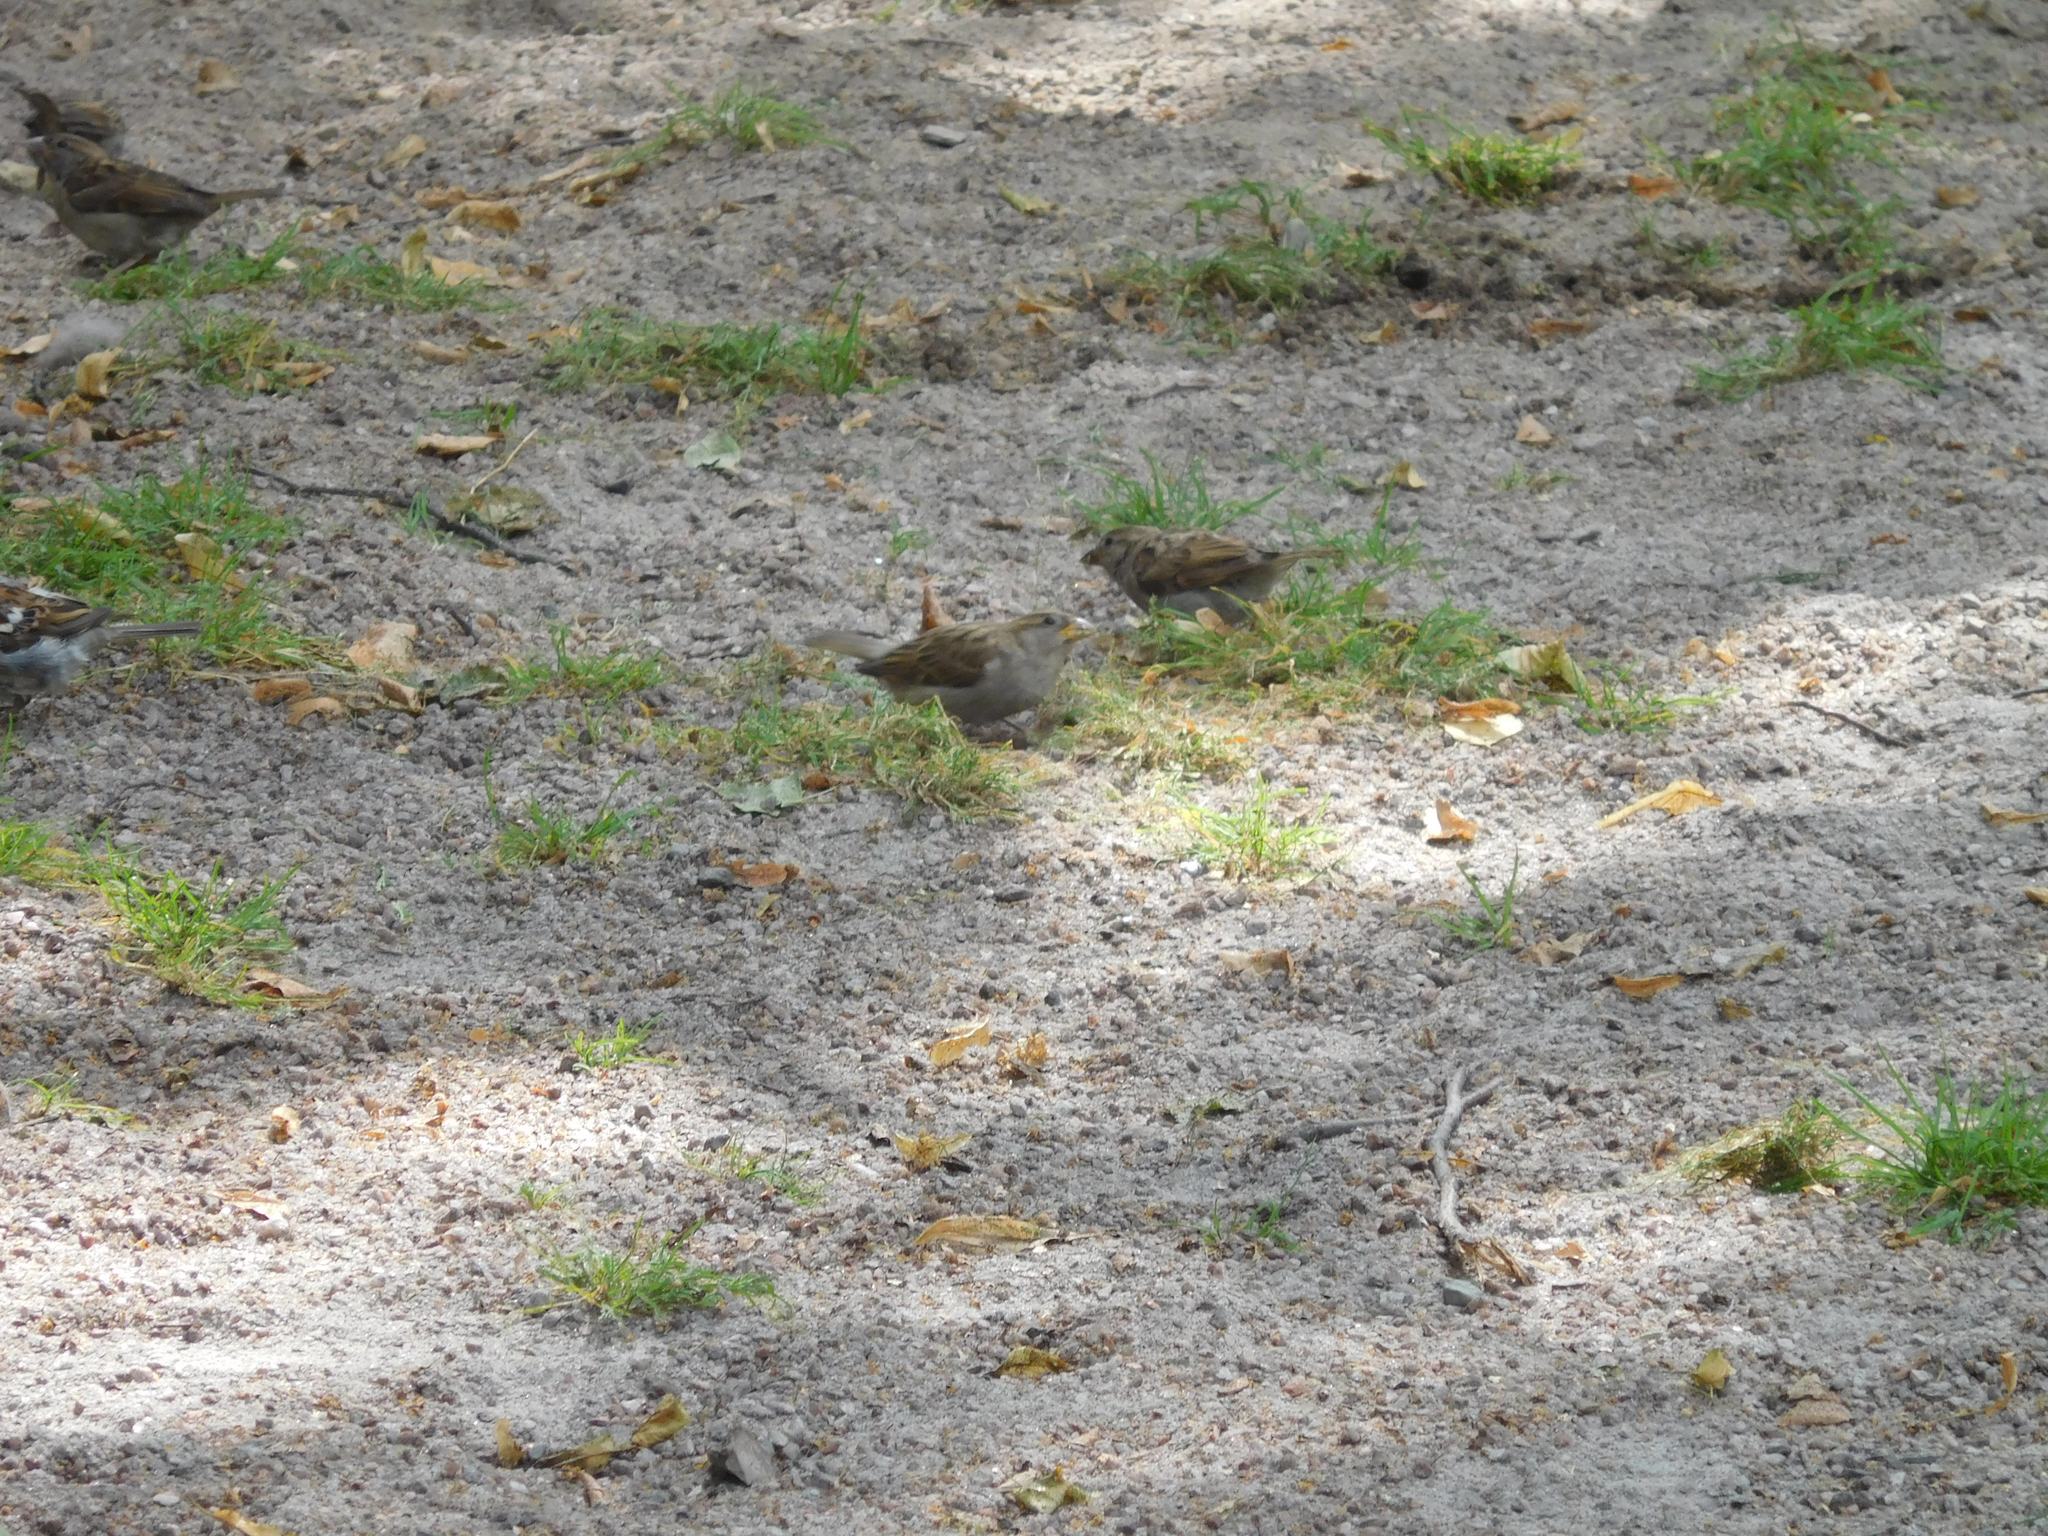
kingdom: Animalia
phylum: Chordata
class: Aves
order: Passeriformes
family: Passeridae
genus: Passer
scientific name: Passer domesticus
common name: House sparrow
